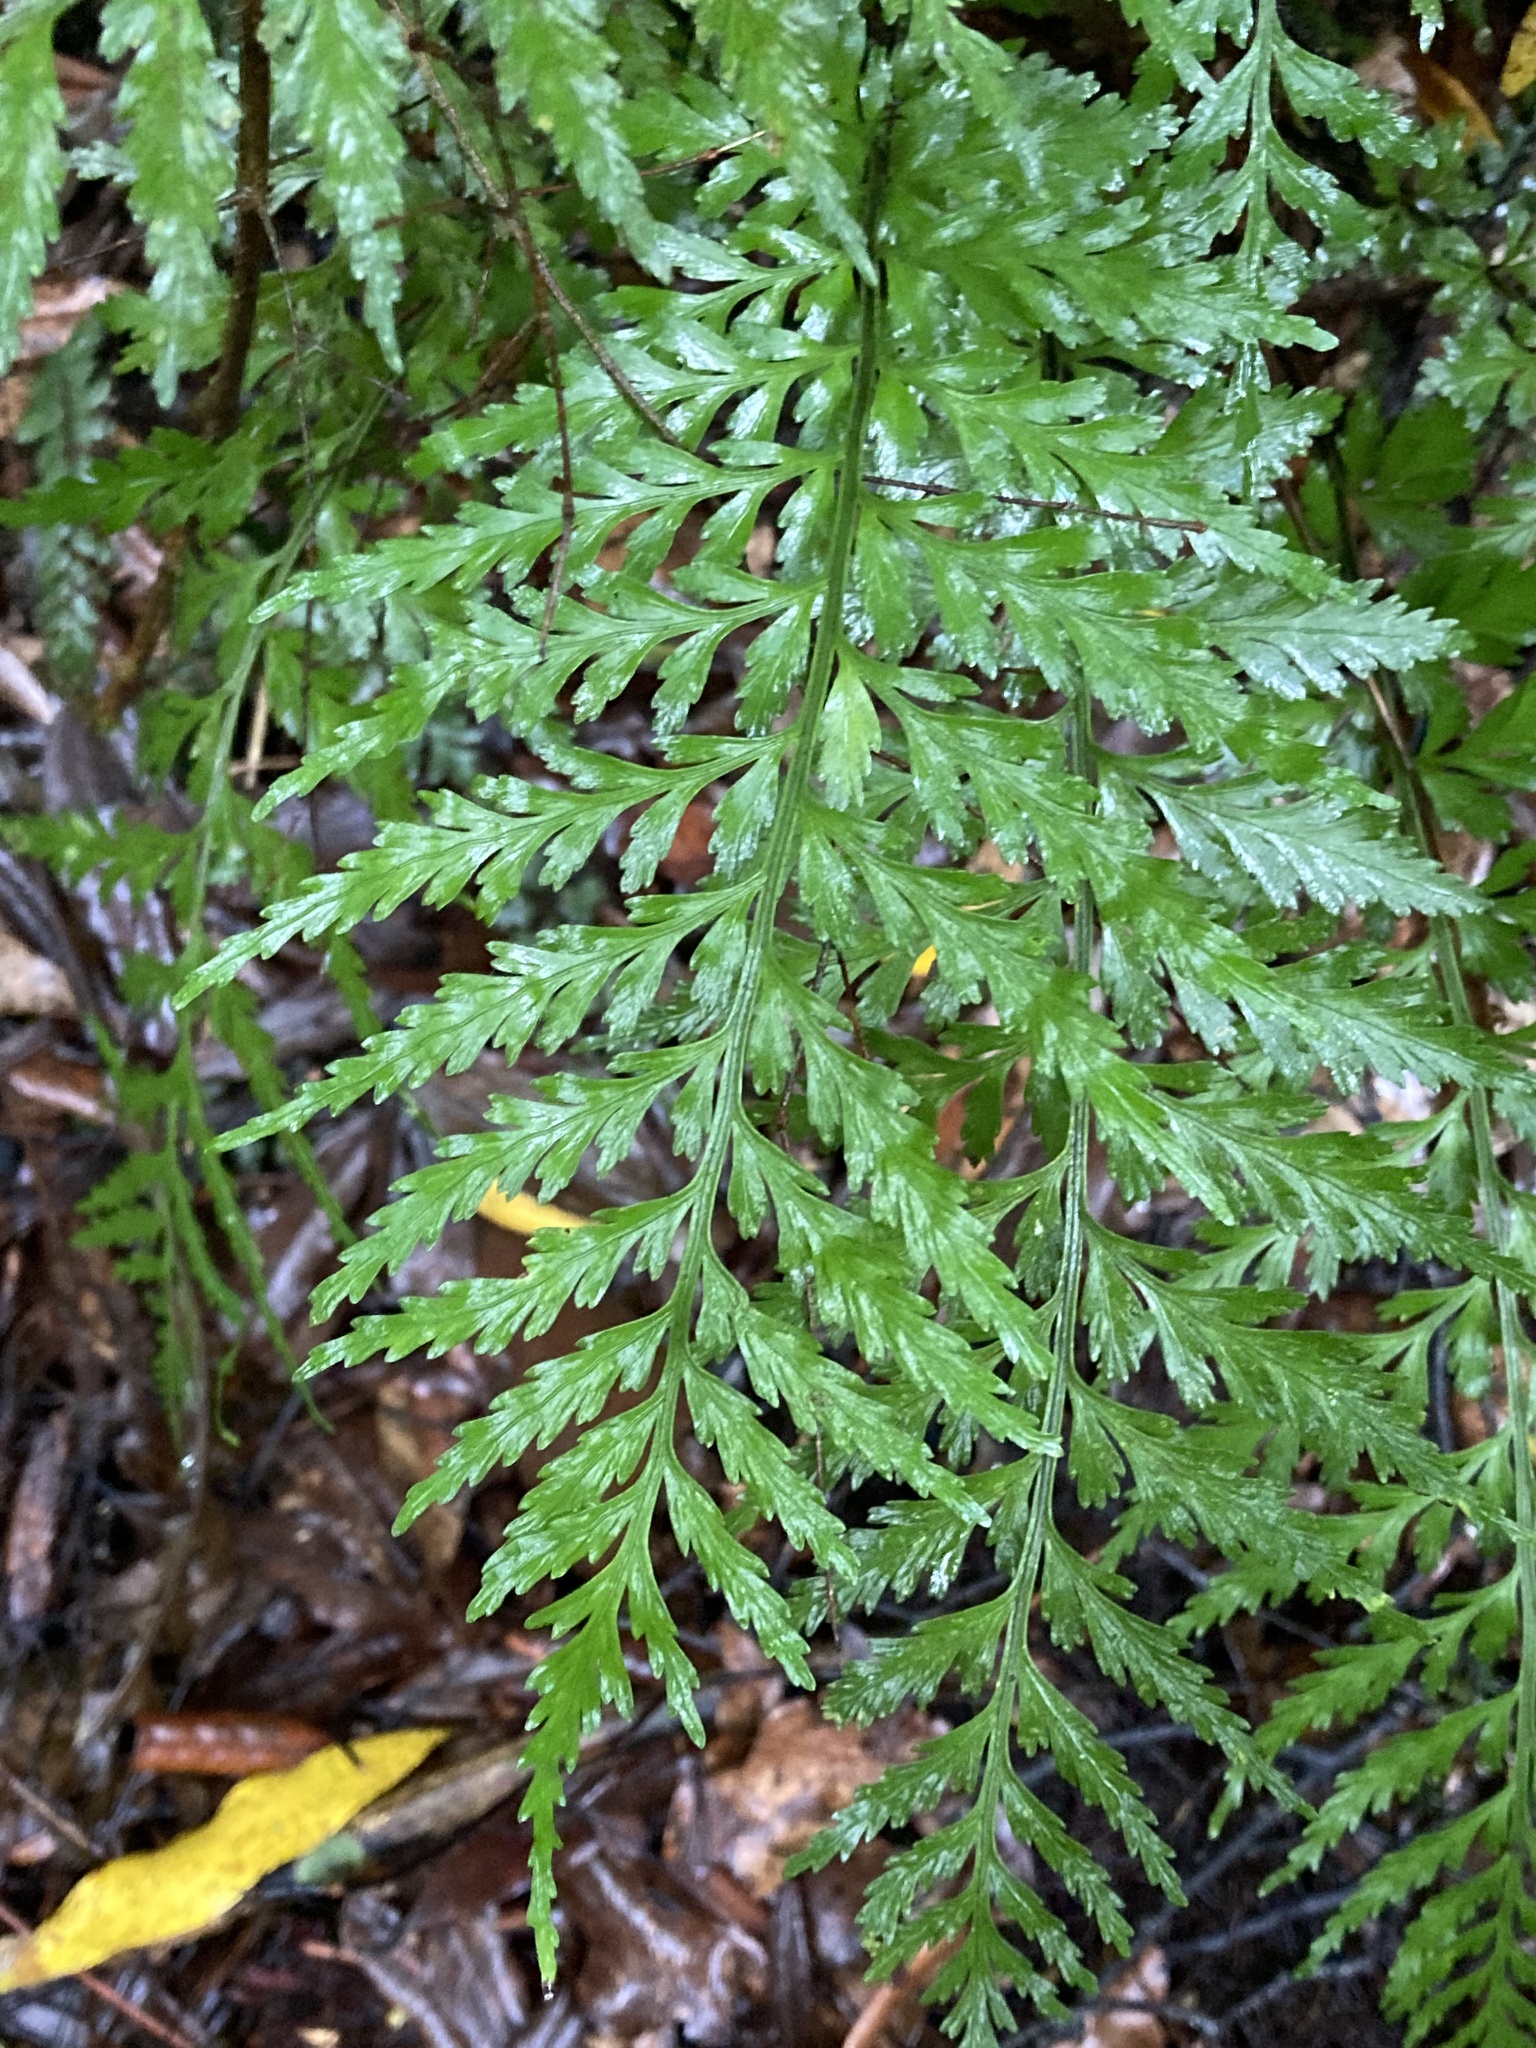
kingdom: Plantae
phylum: Tracheophyta
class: Polypodiopsida
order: Polypodiales
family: Aspleniaceae
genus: Asplenium
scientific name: Asplenium lamprophyllum
